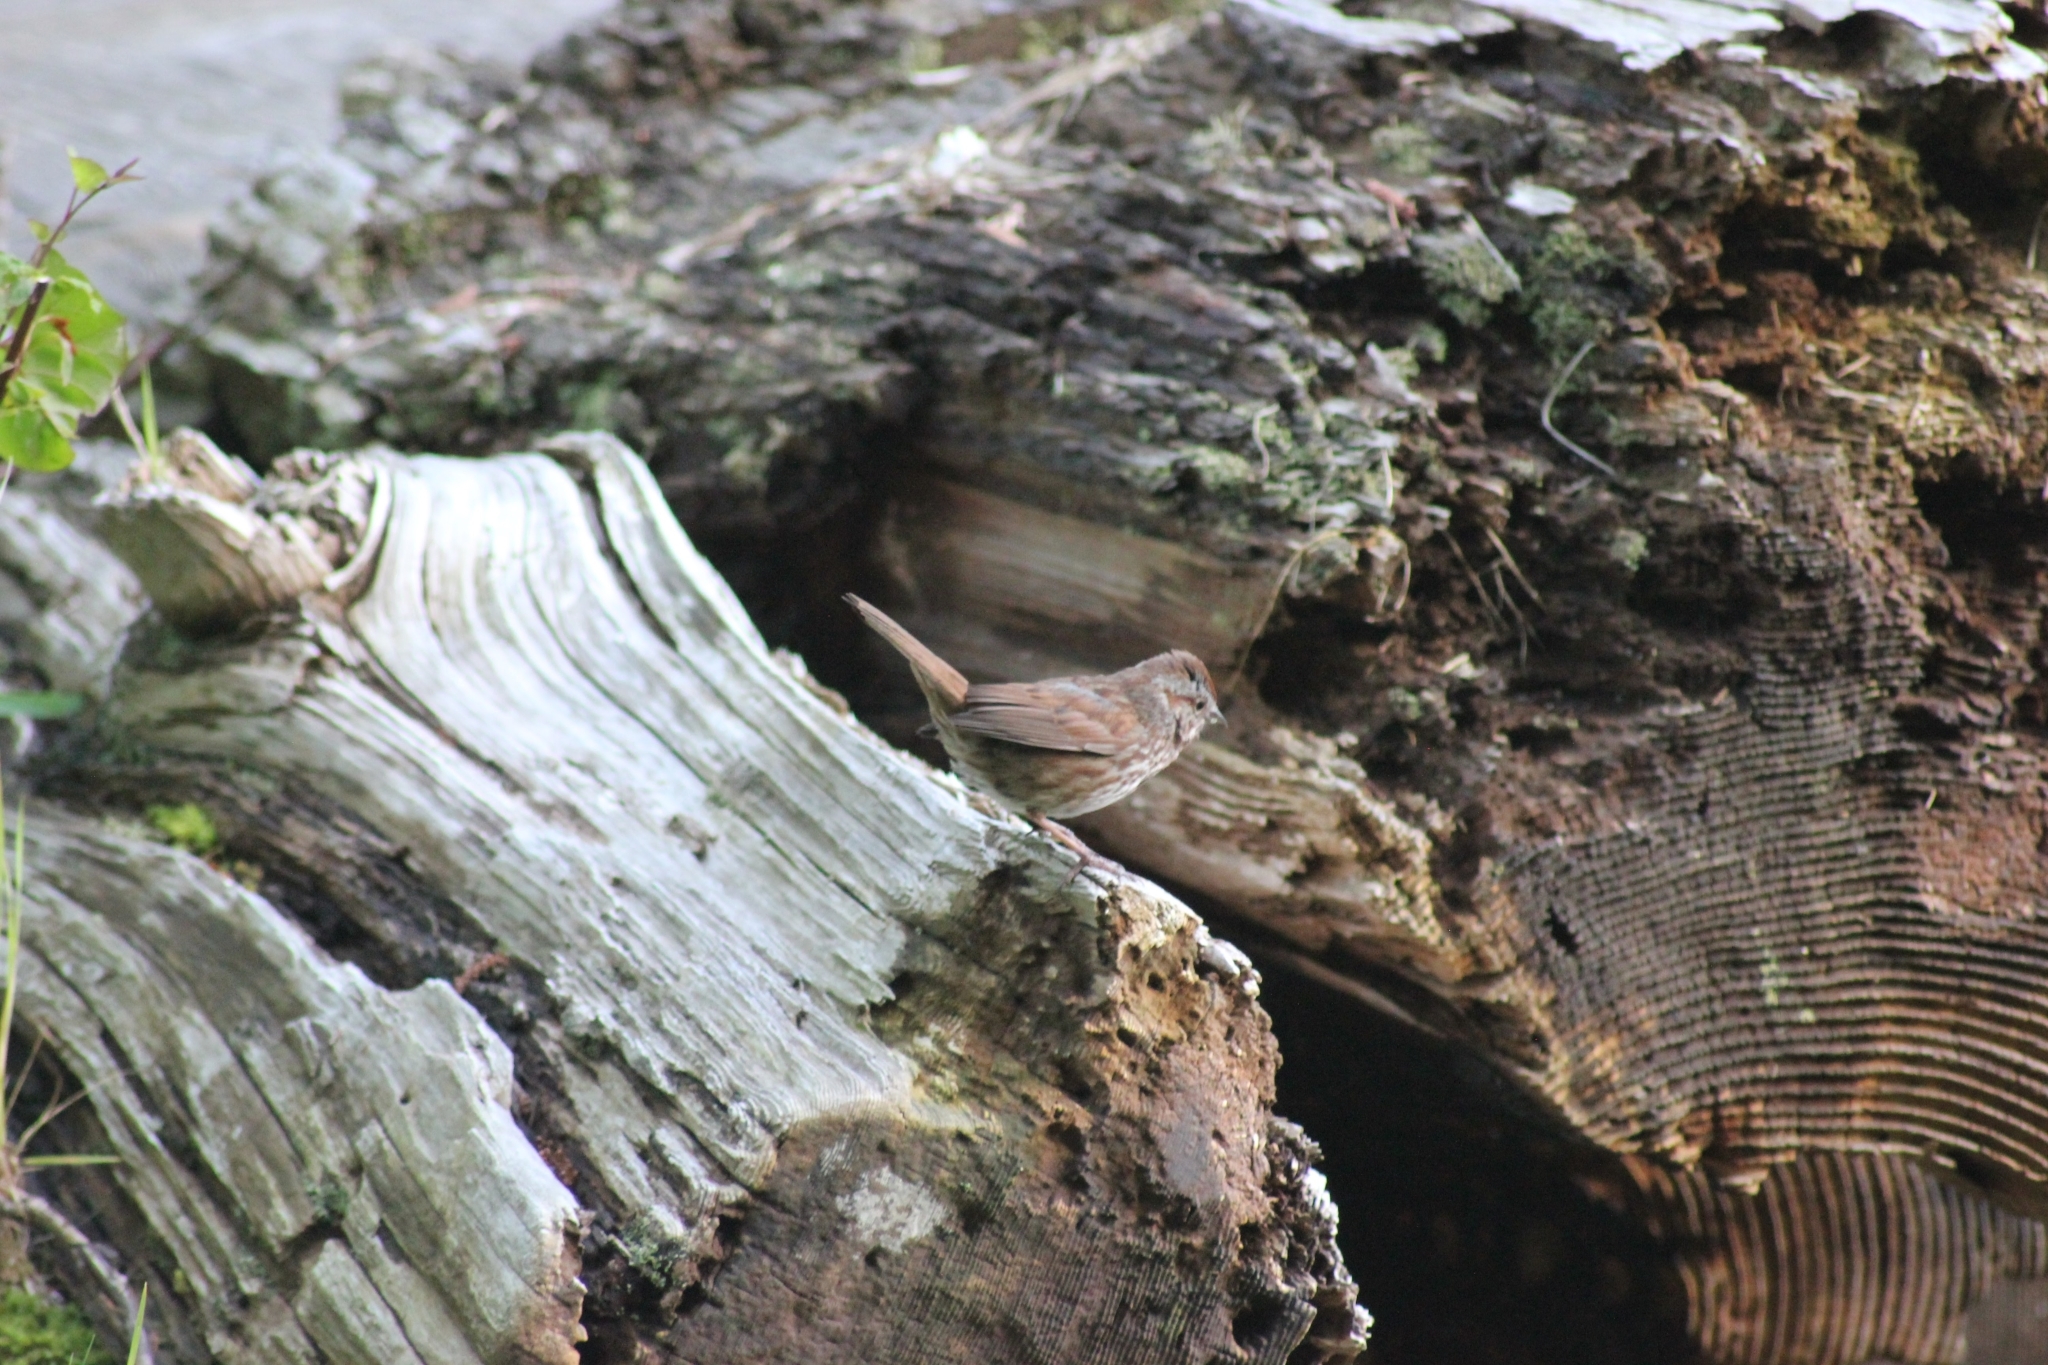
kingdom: Animalia
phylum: Chordata
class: Aves
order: Passeriformes
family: Passerellidae
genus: Melospiza
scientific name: Melospiza melodia
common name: Song sparrow
